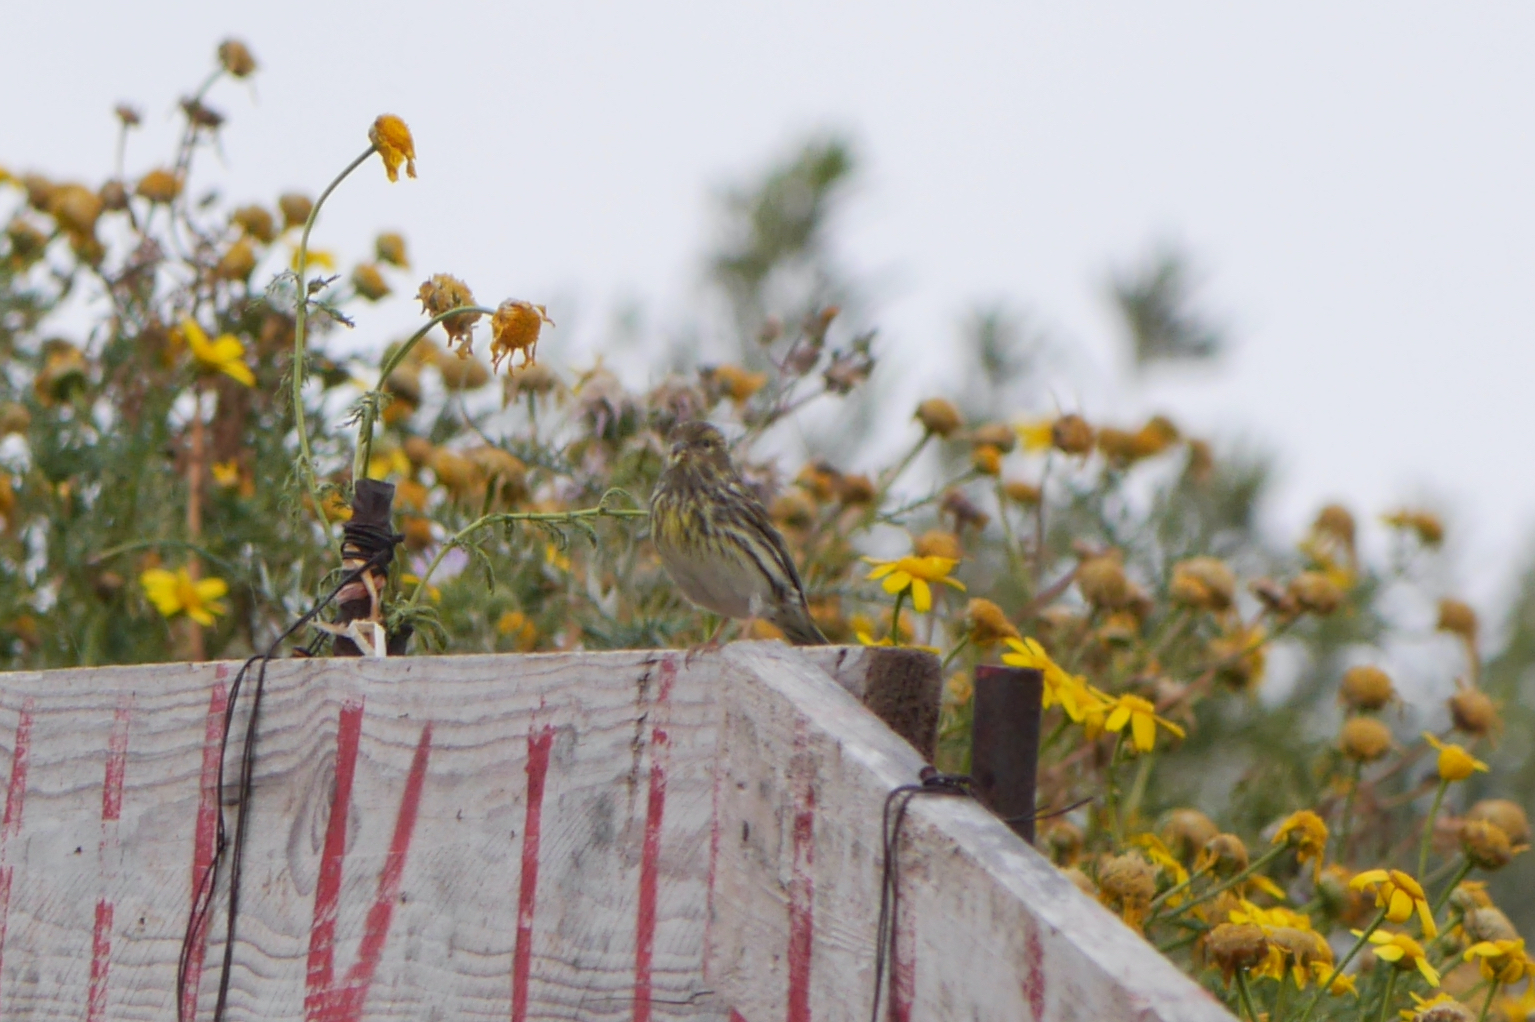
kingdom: Animalia
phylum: Chordata
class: Aves
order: Passeriformes
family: Fringillidae
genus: Serinus
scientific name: Serinus serinus
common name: European serin
